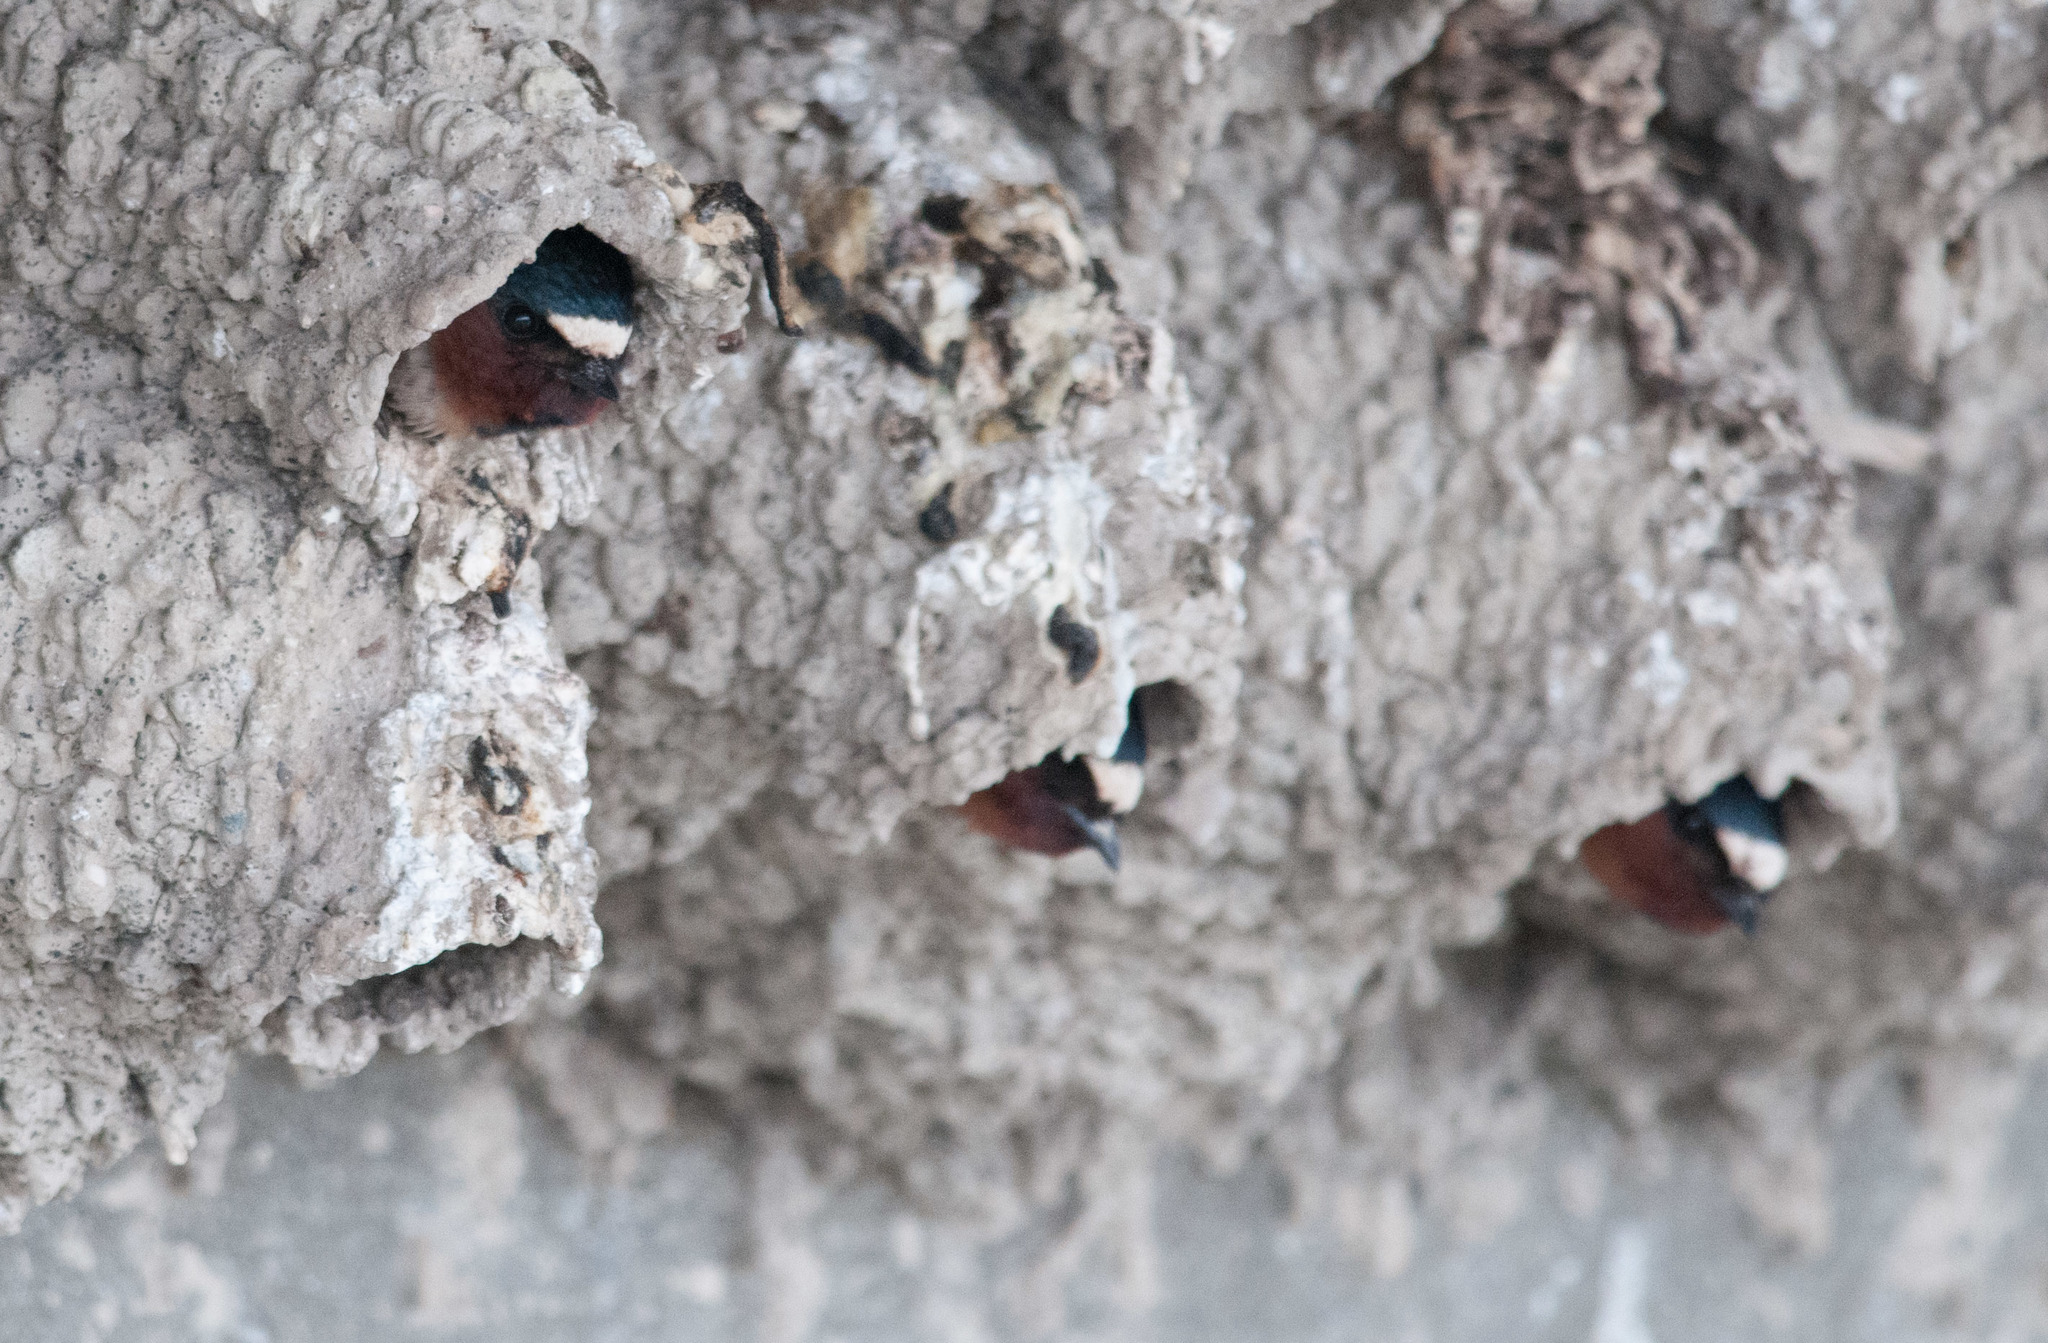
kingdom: Animalia
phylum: Chordata
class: Aves
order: Passeriformes
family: Hirundinidae
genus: Petrochelidon
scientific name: Petrochelidon pyrrhonota
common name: American cliff swallow
